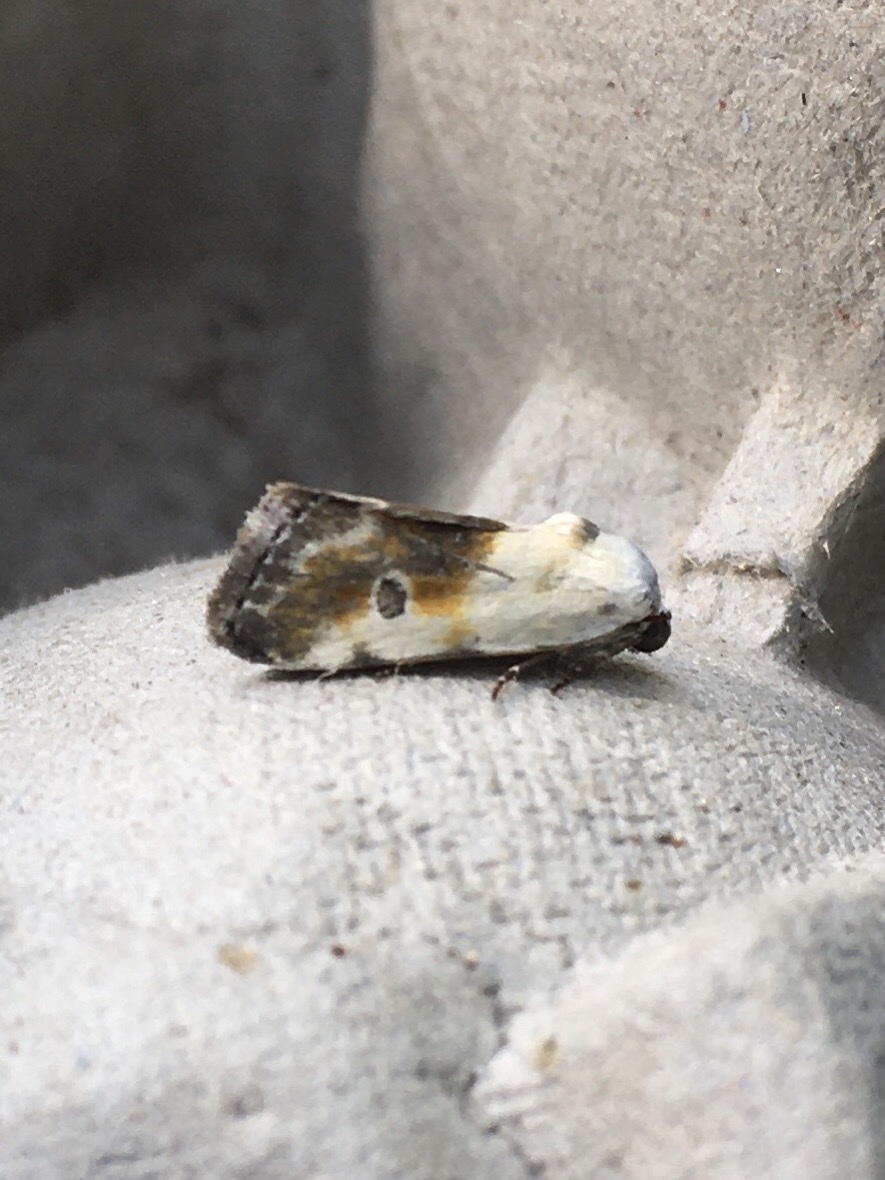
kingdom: Animalia
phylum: Arthropoda
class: Insecta
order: Lepidoptera
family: Noctuidae
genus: Acontia
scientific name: Acontia candefacta
